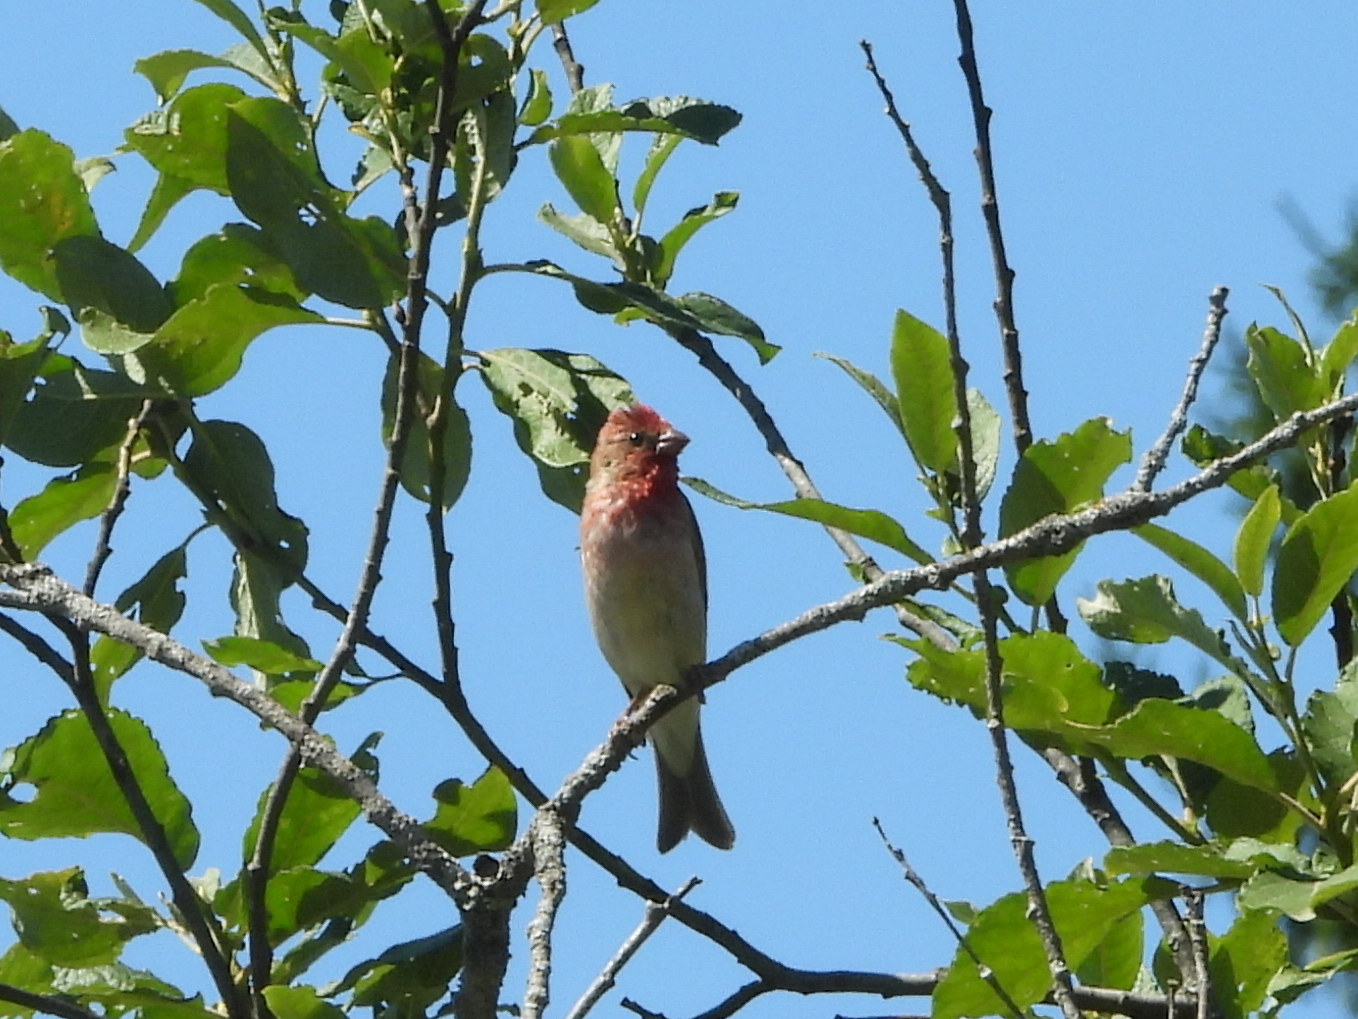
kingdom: Animalia
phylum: Chordata
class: Aves
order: Passeriformes
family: Fringillidae
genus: Carpodacus
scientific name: Carpodacus erythrinus
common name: Common rosefinch
